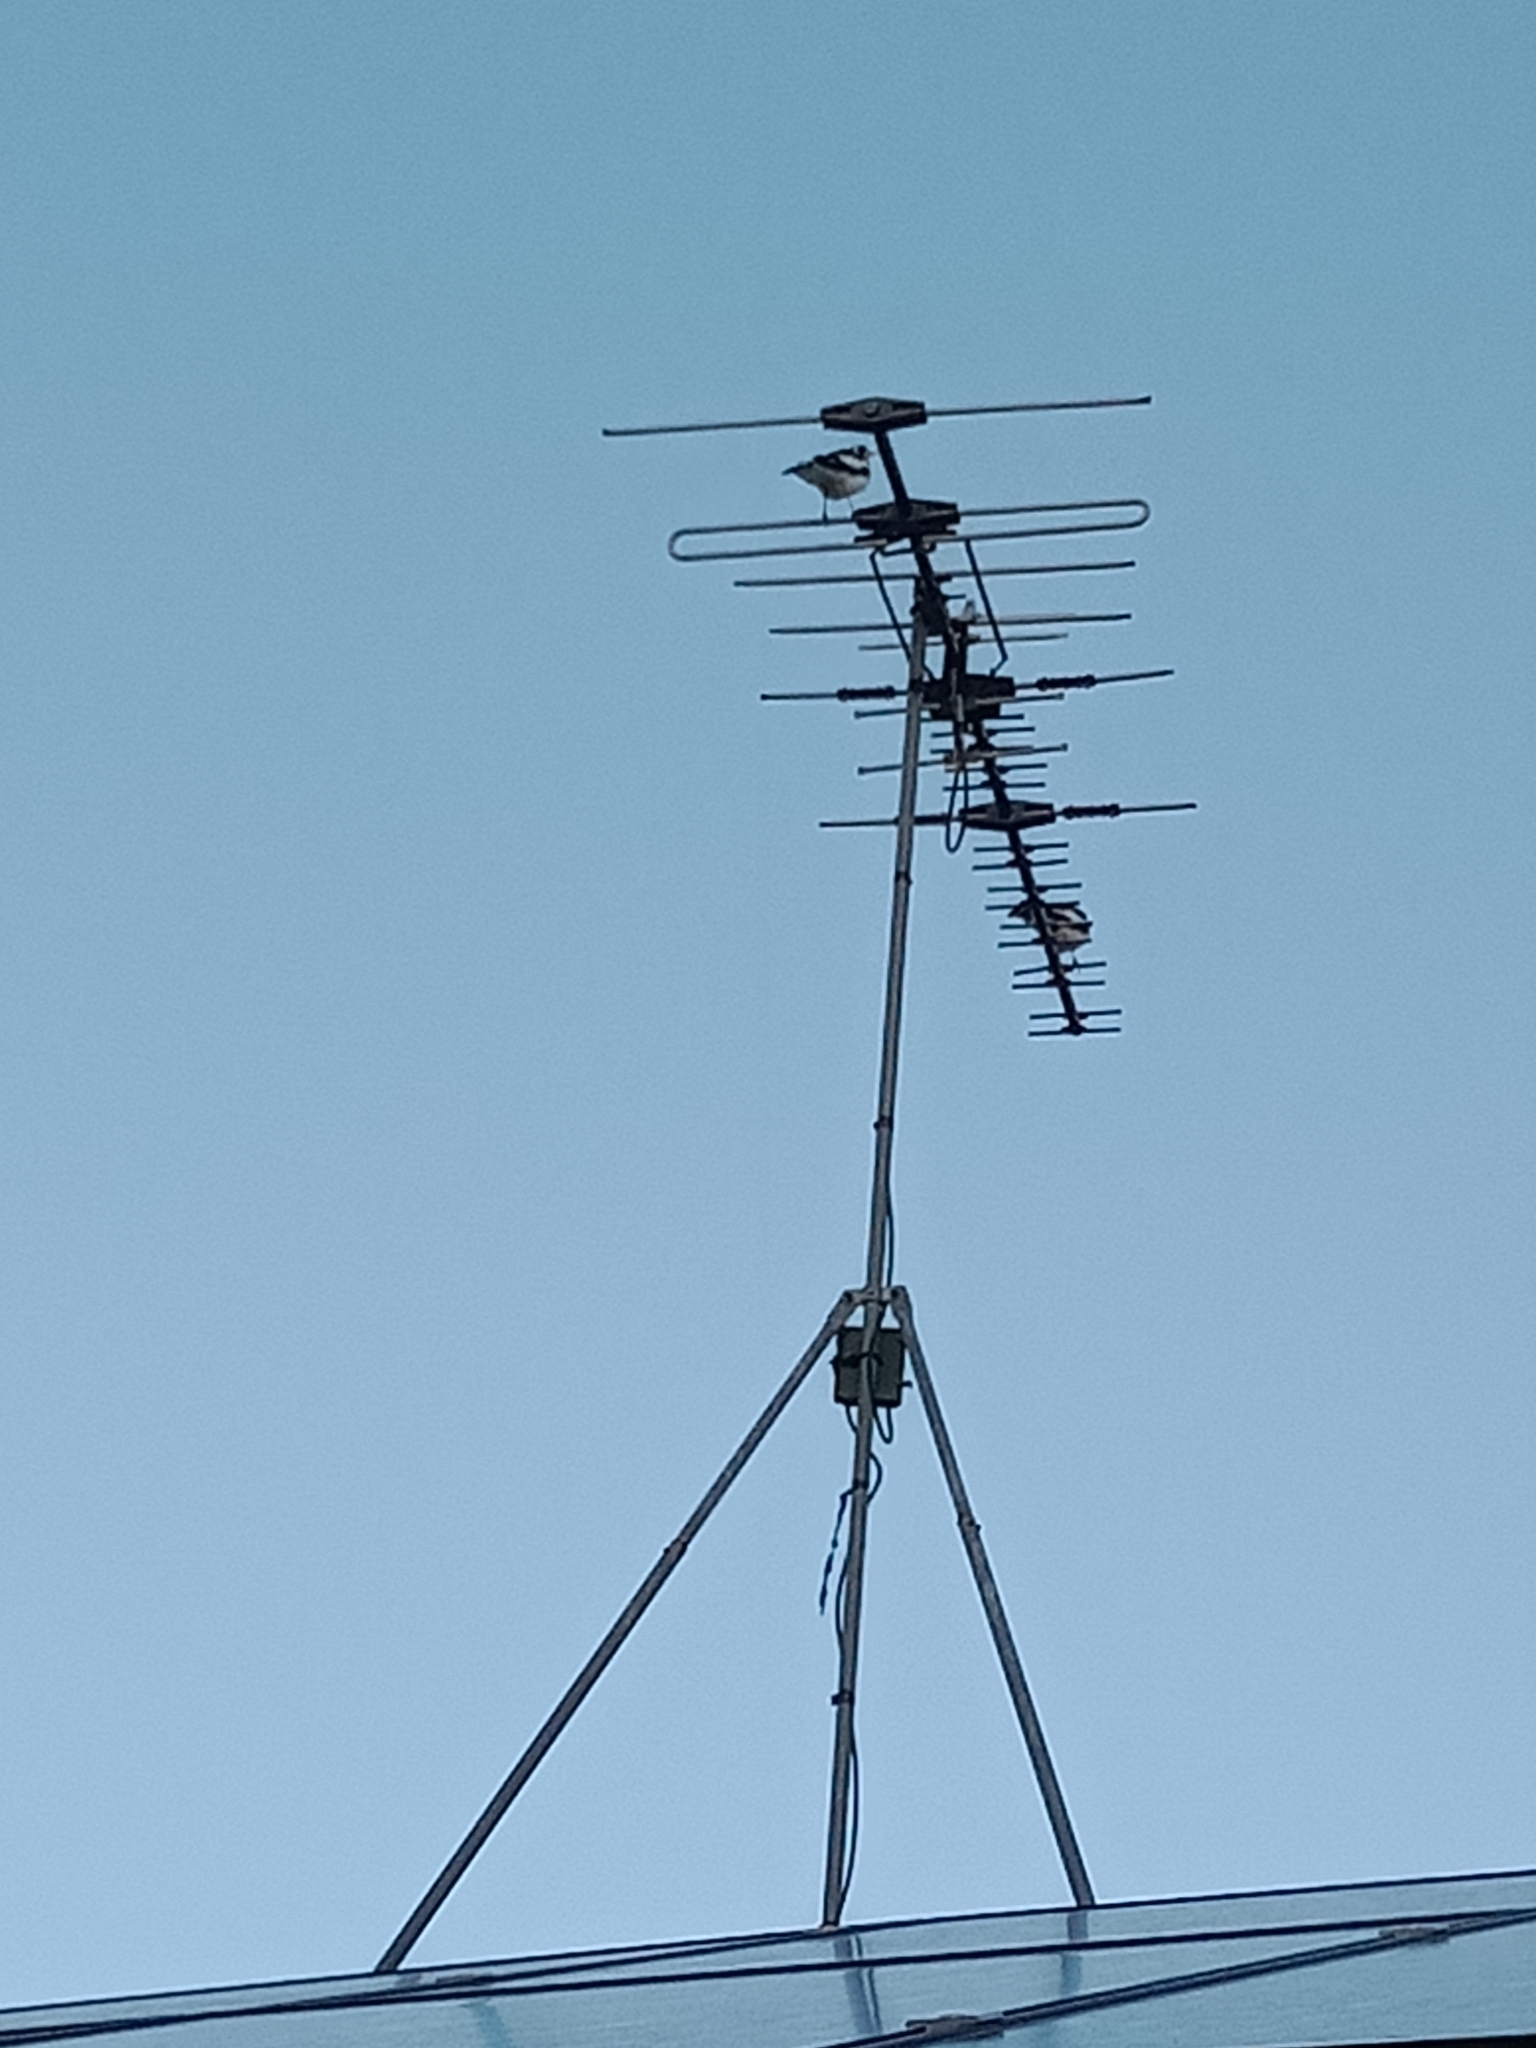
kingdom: Animalia
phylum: Chordata
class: Aves
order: Passeriformes
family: Monarchidae
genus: Grallina
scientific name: Grallina cyanoleuca
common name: Magpie-lark
